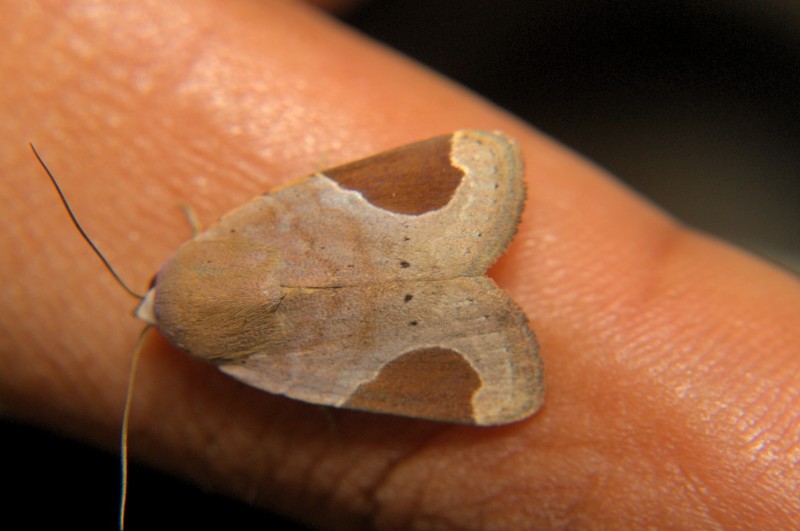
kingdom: Animalia
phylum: Arthropoda
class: Insecta
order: Lepidoptera
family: Noctuidae
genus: Dyrzela
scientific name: Dyrzela plagiata
